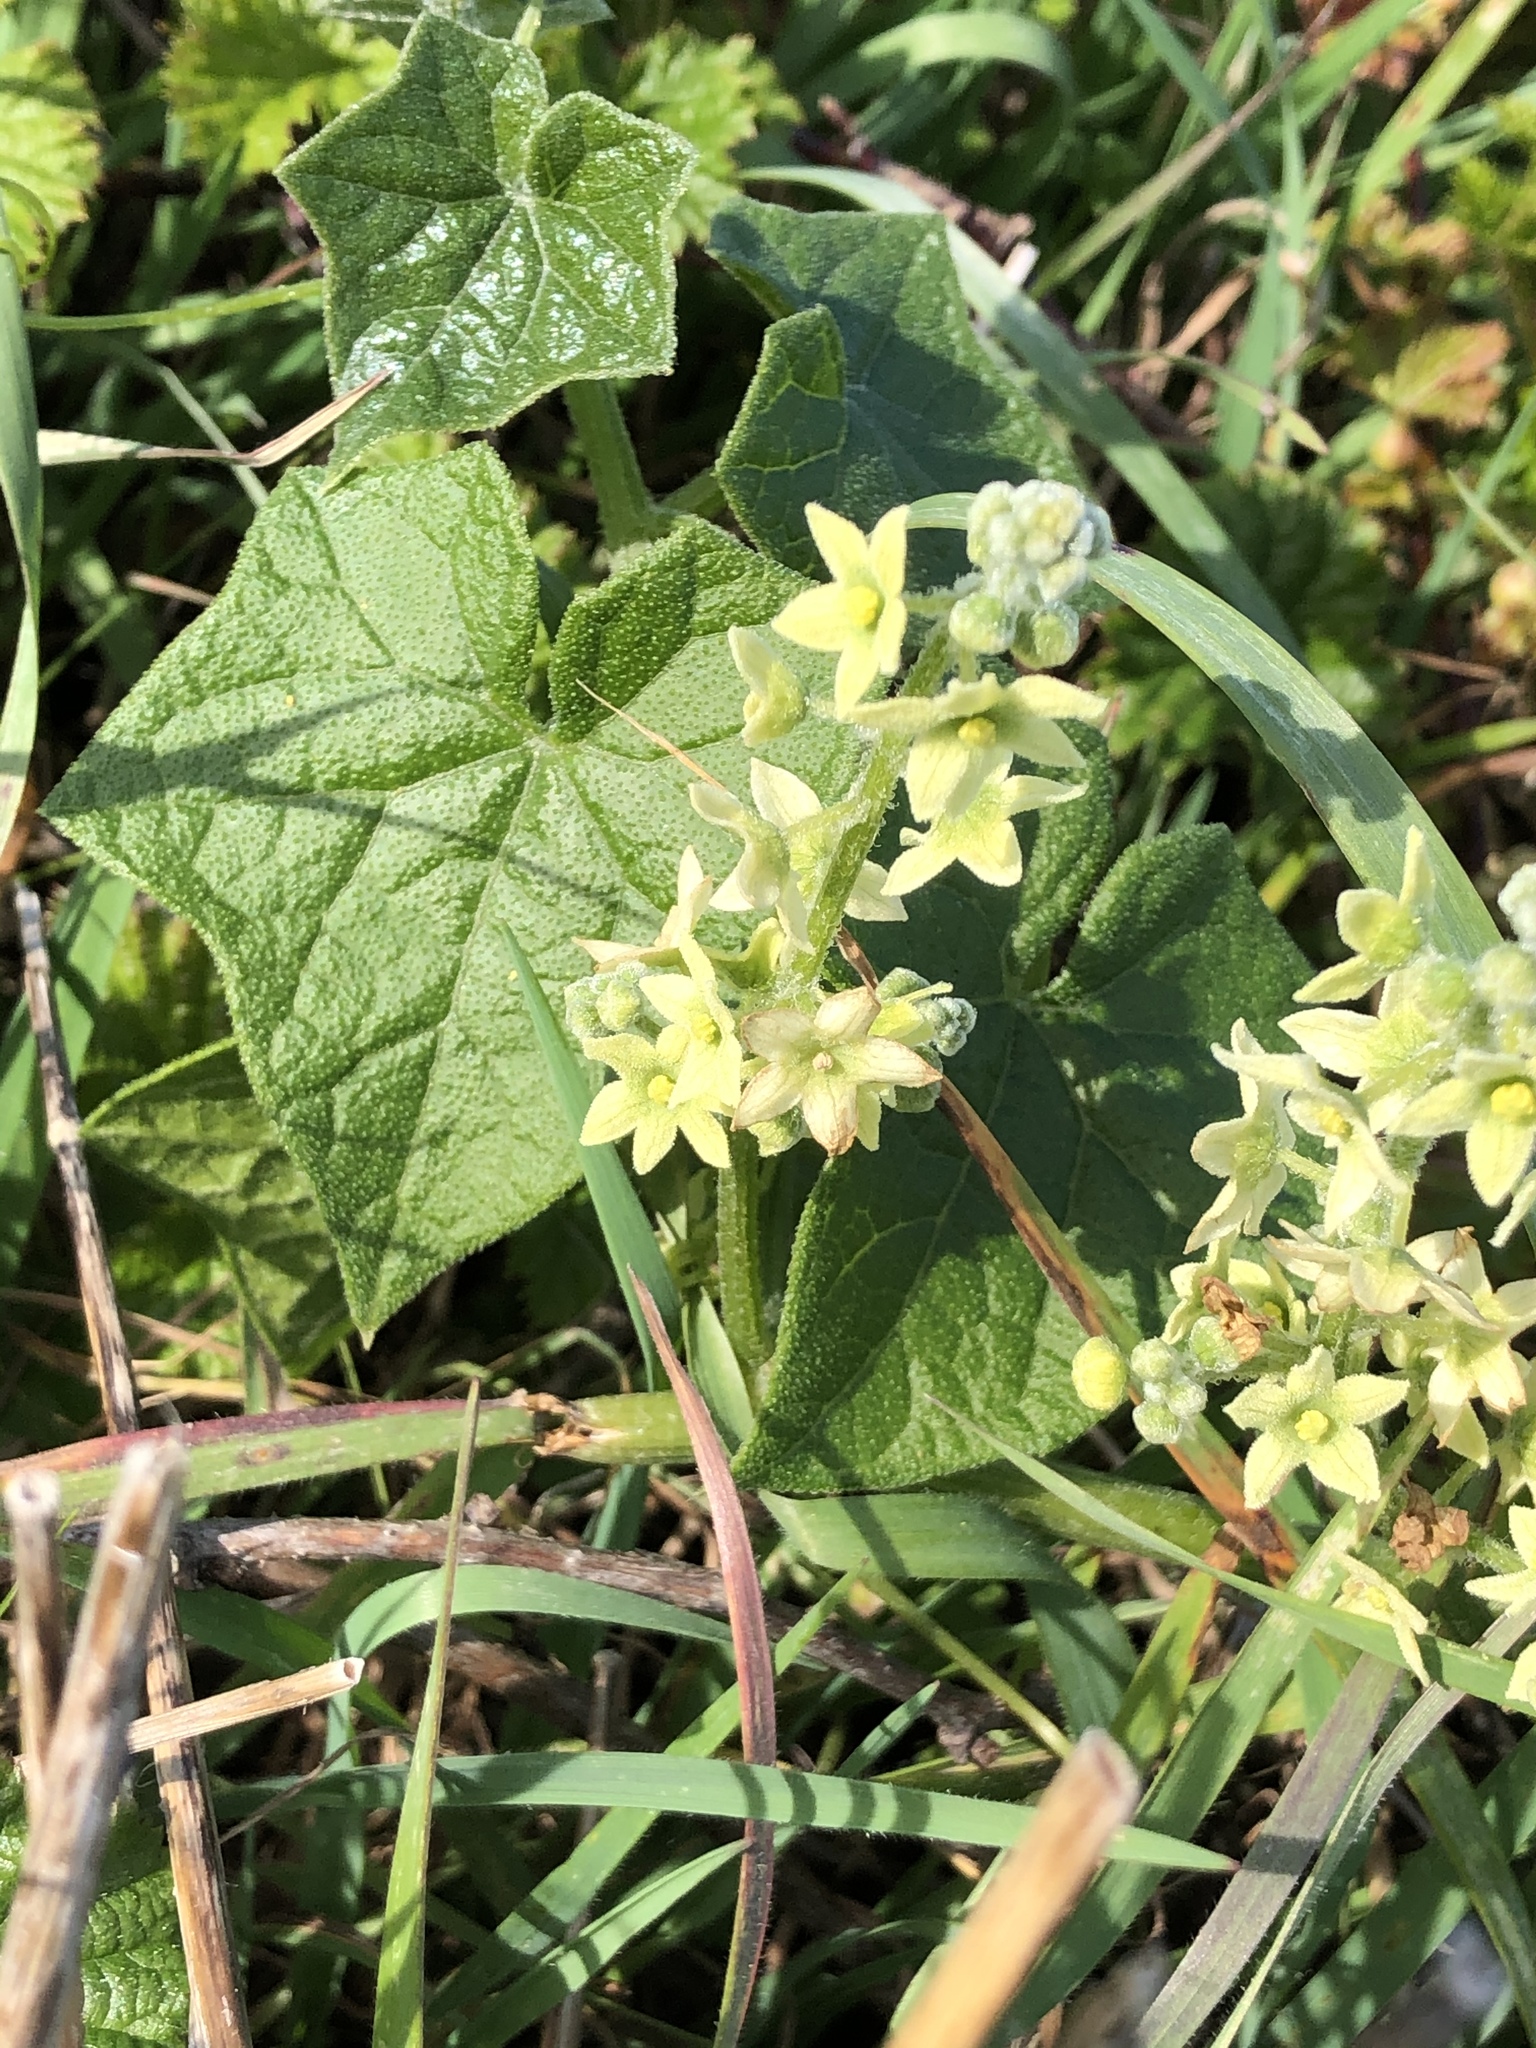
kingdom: Plantae
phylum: Tracheophyta
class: Magnoliopsida
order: Cucurbitales
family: Cucurbitaceae
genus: Marah
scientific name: Marah fabacea
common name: California manroot
